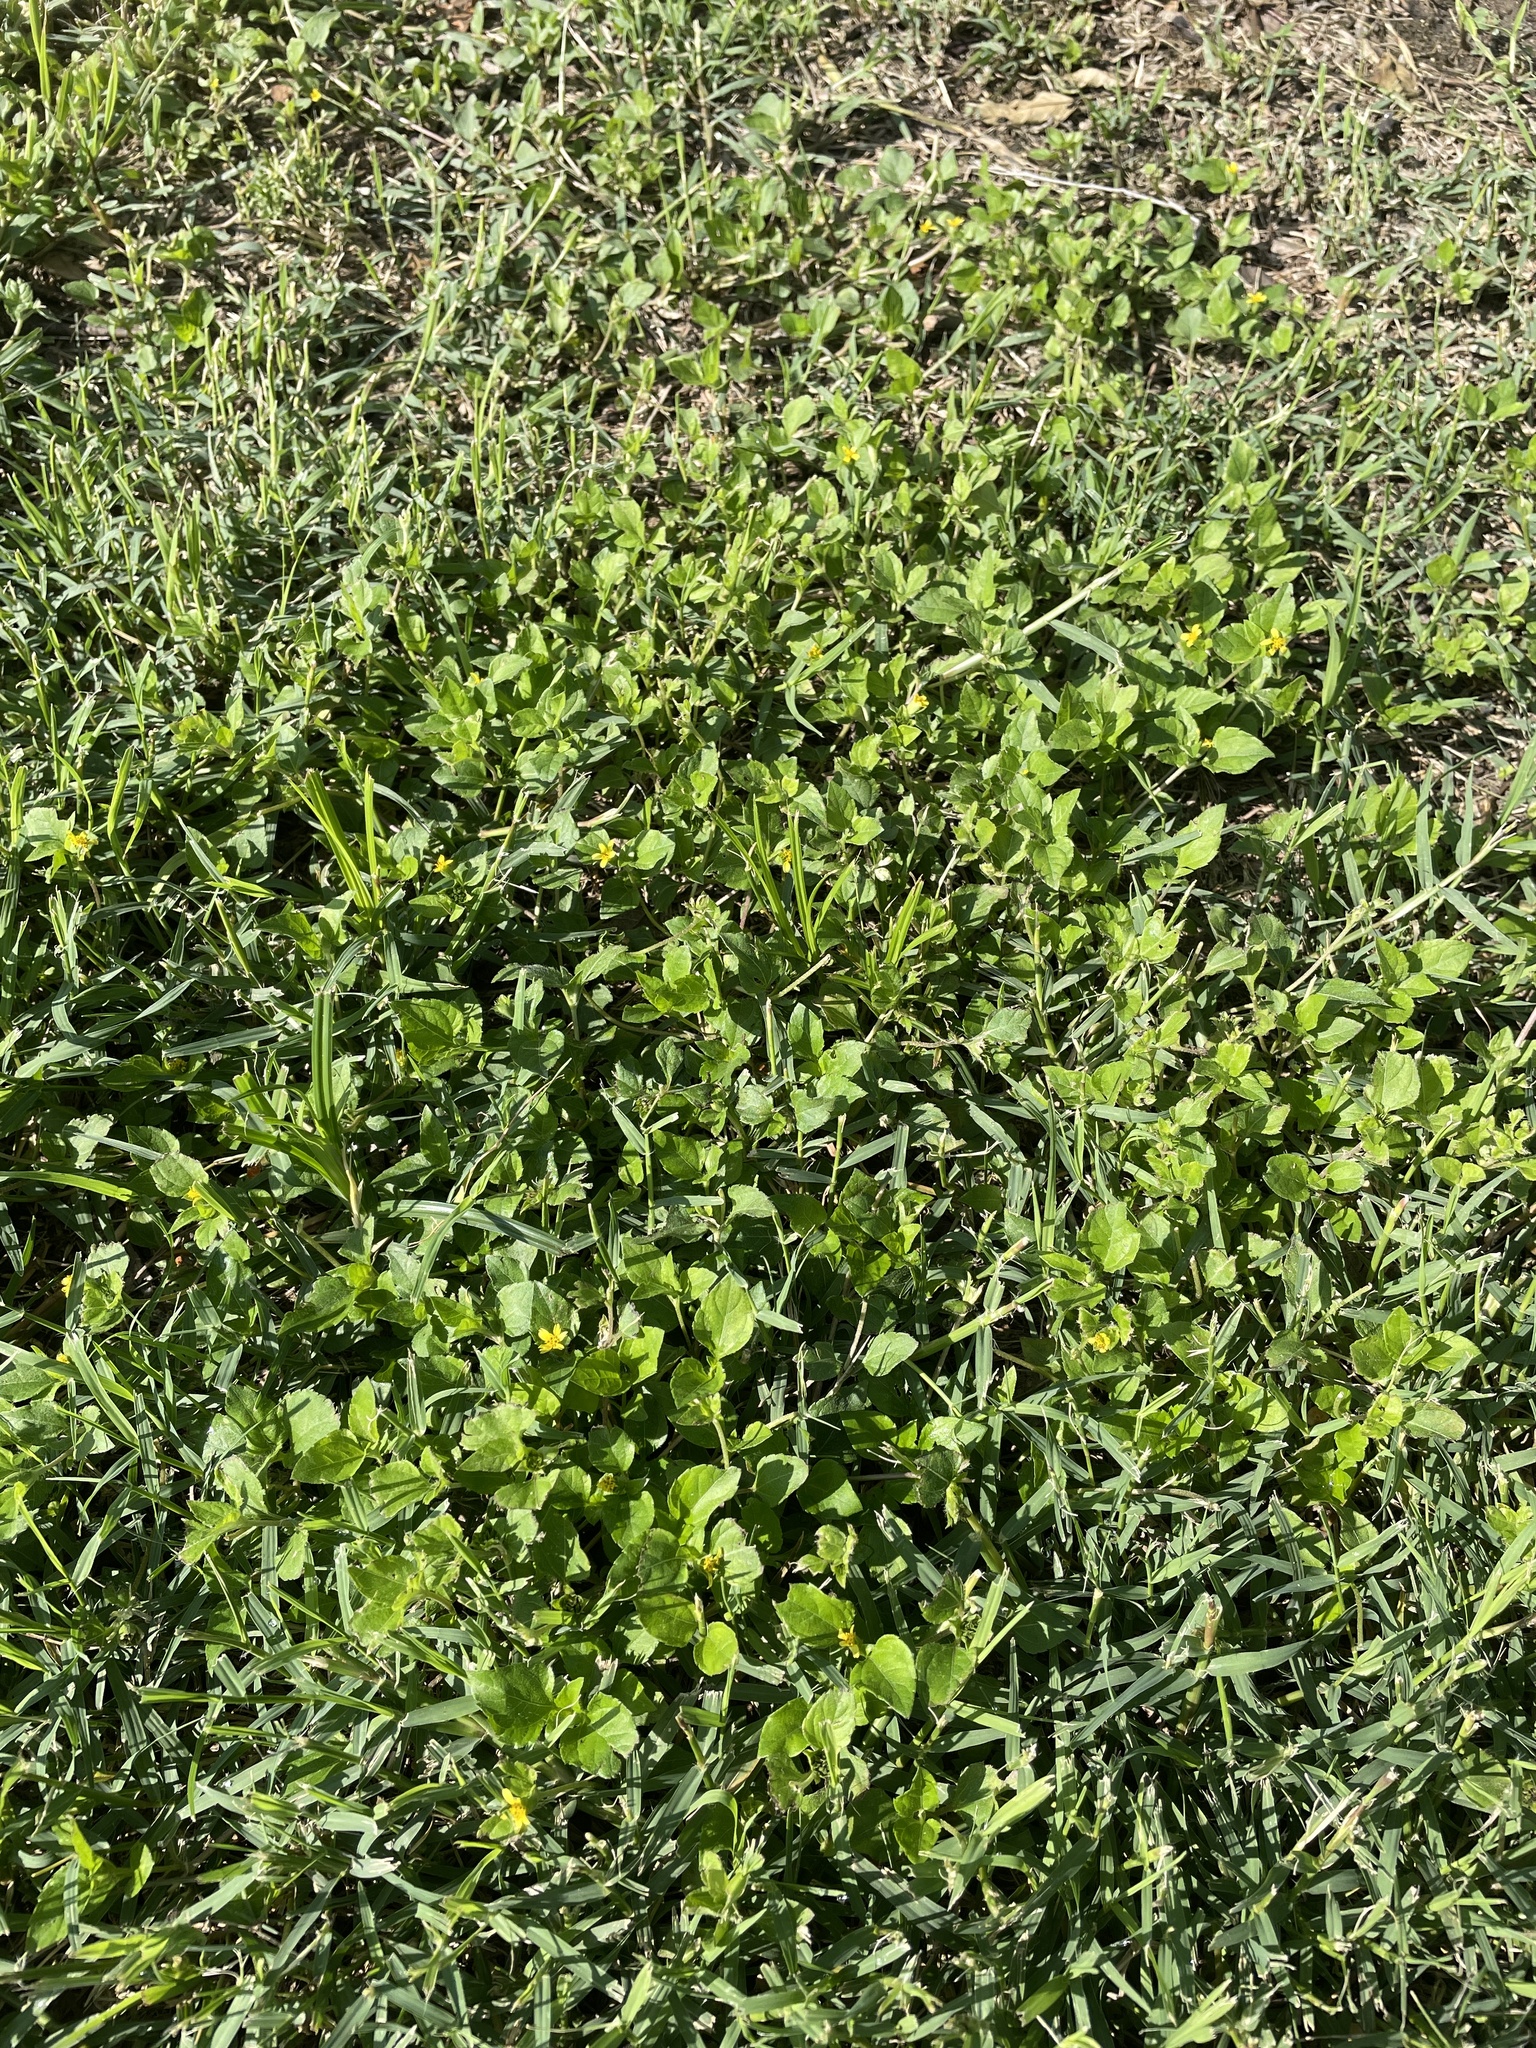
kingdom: Plantae
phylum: Tracheophyta
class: Magnoliopsida
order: Asterales
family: Asteraceae
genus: Calyptocarpus
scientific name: Calyptocarpus vialis
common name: Straggler daisy
